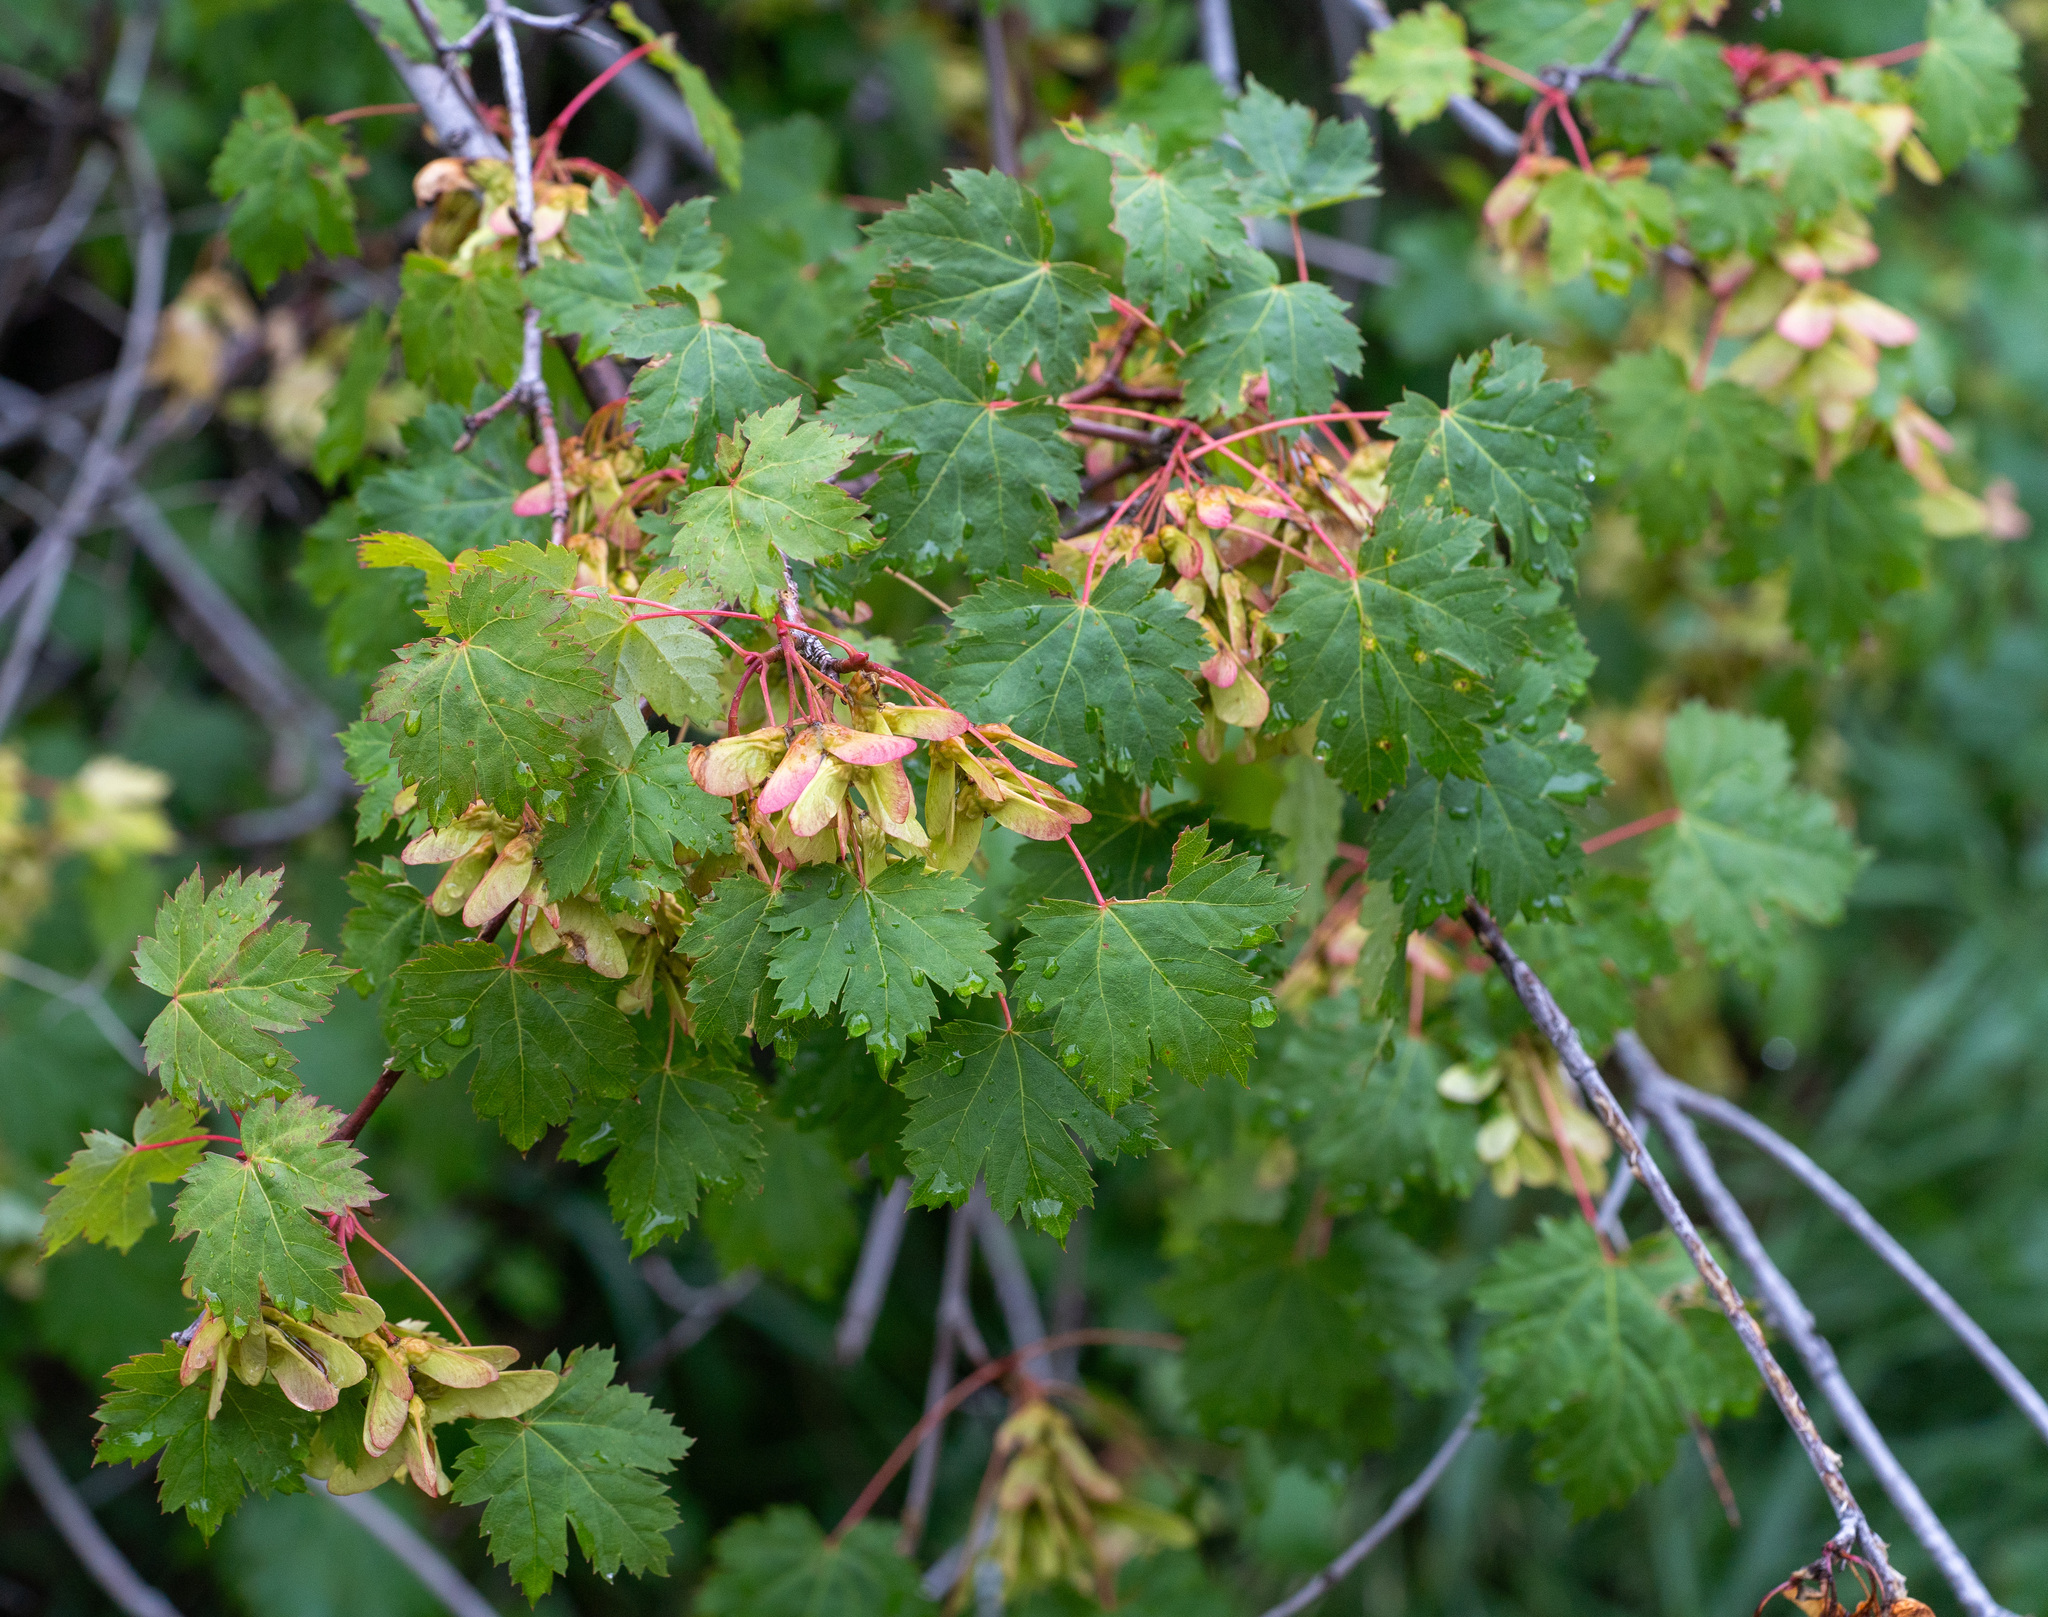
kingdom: Plantae
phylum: Tracheophyta
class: Magnoliopsida
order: Sapindales
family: Sapindaceae
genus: Acer
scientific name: Acer glabrum
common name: Rocky mountain maple
